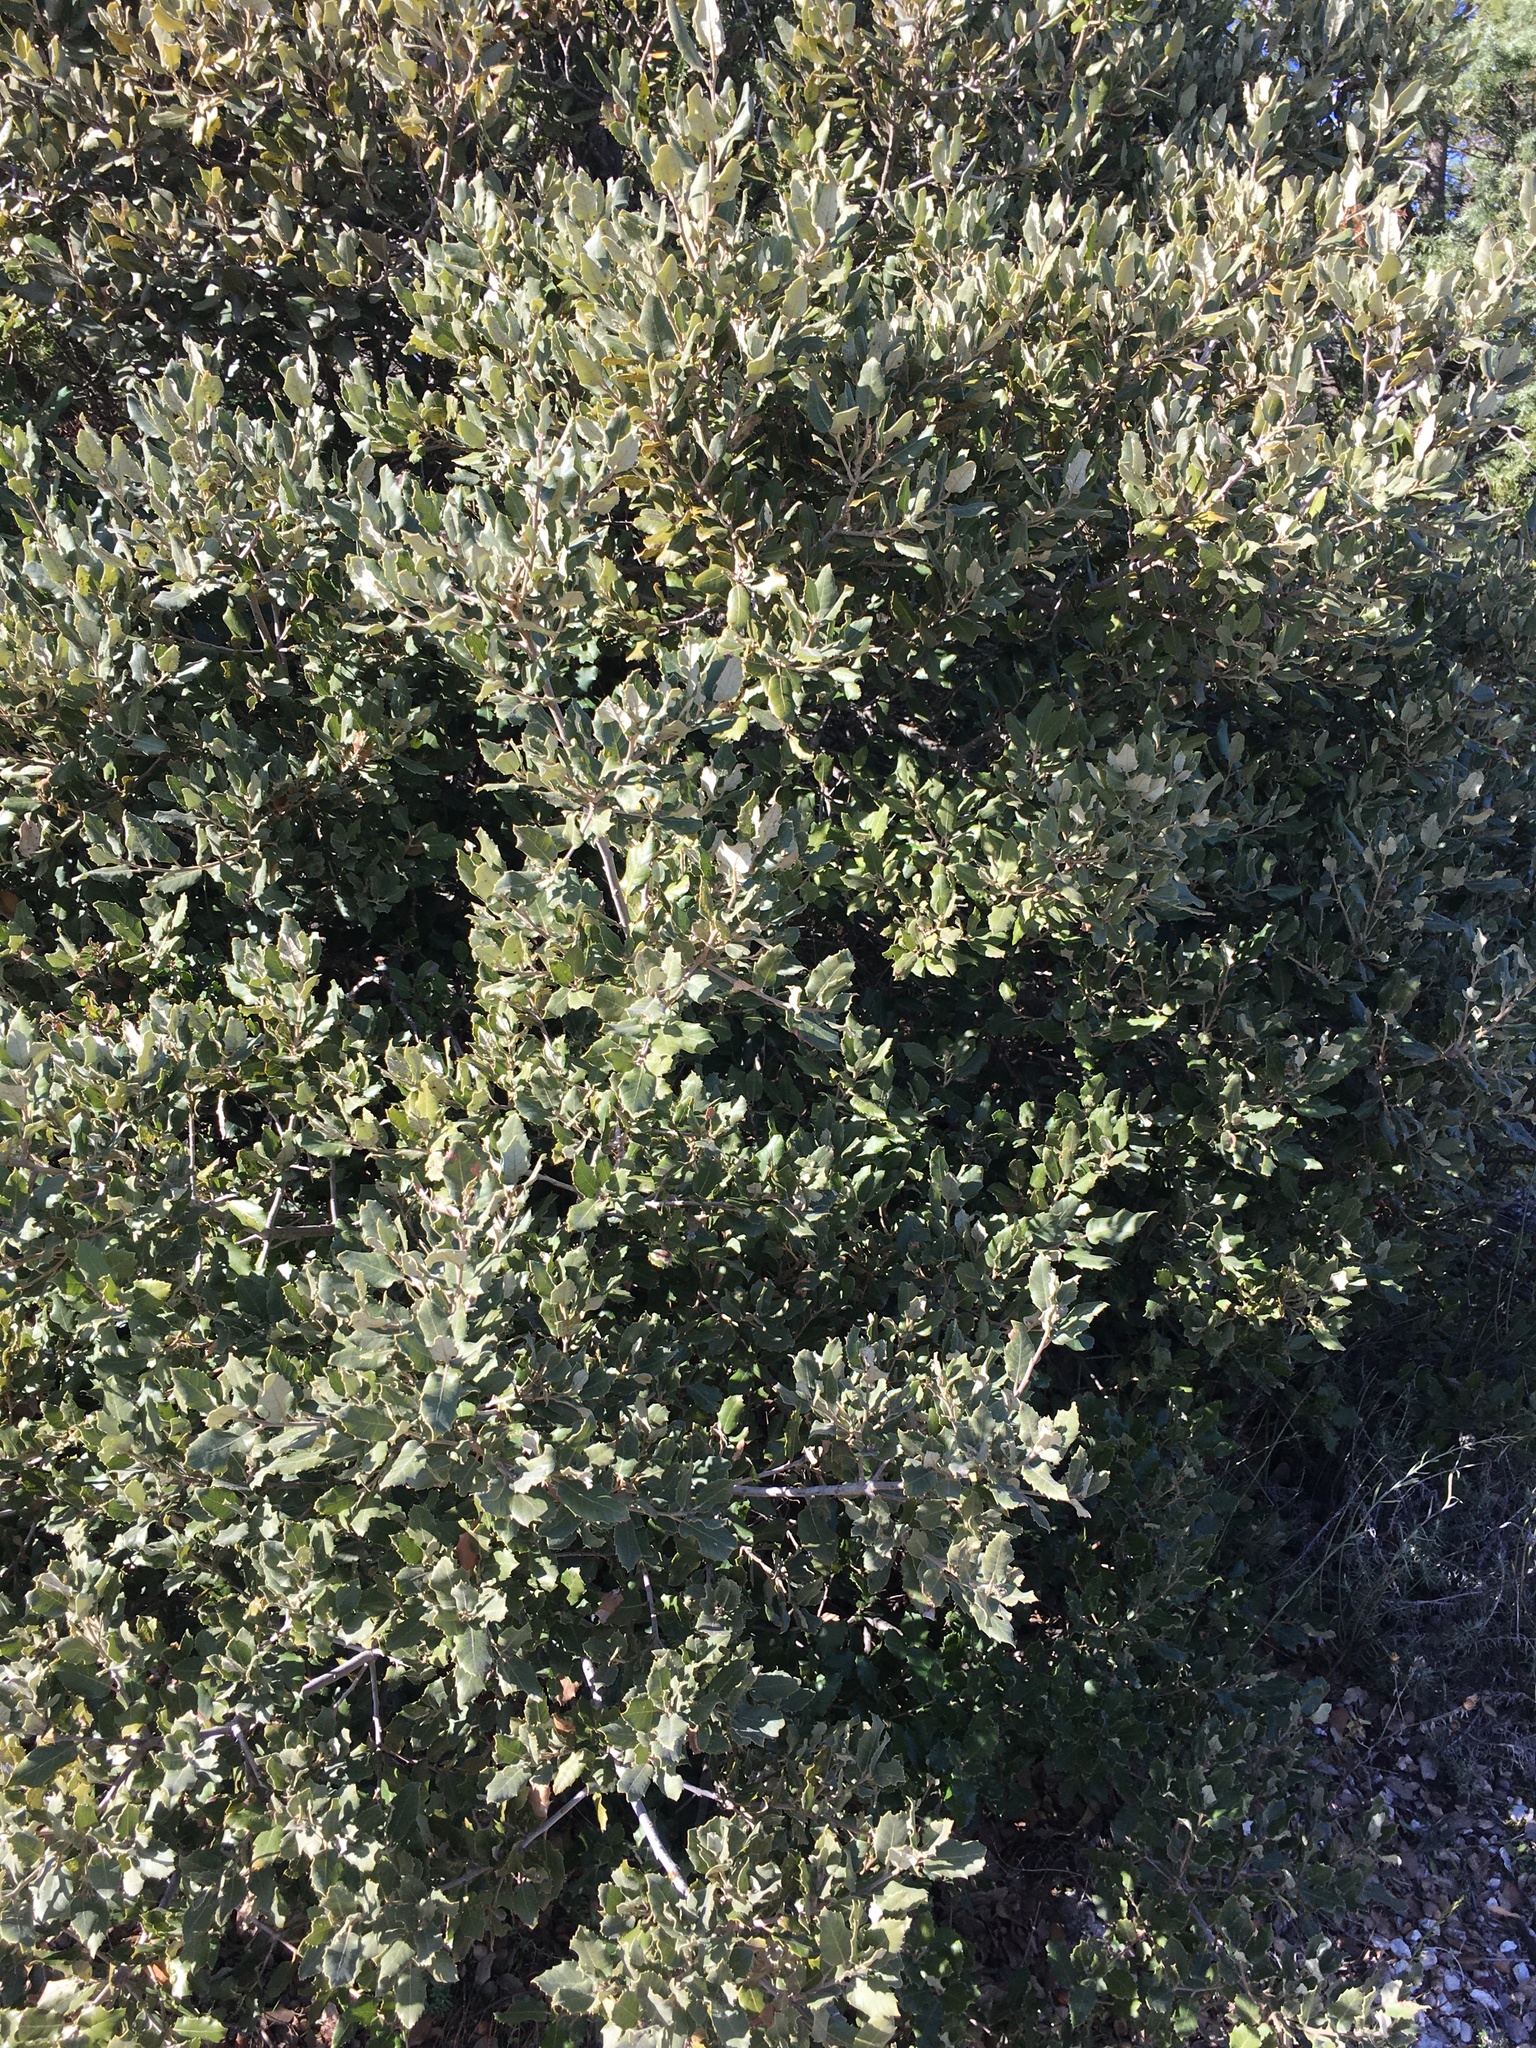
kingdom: Plantae
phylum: Tracheophyta
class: Magnoliopsida
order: Fagales
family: Fagaceae
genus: Quercus
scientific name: Quercus ilex
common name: Evergreen oak
